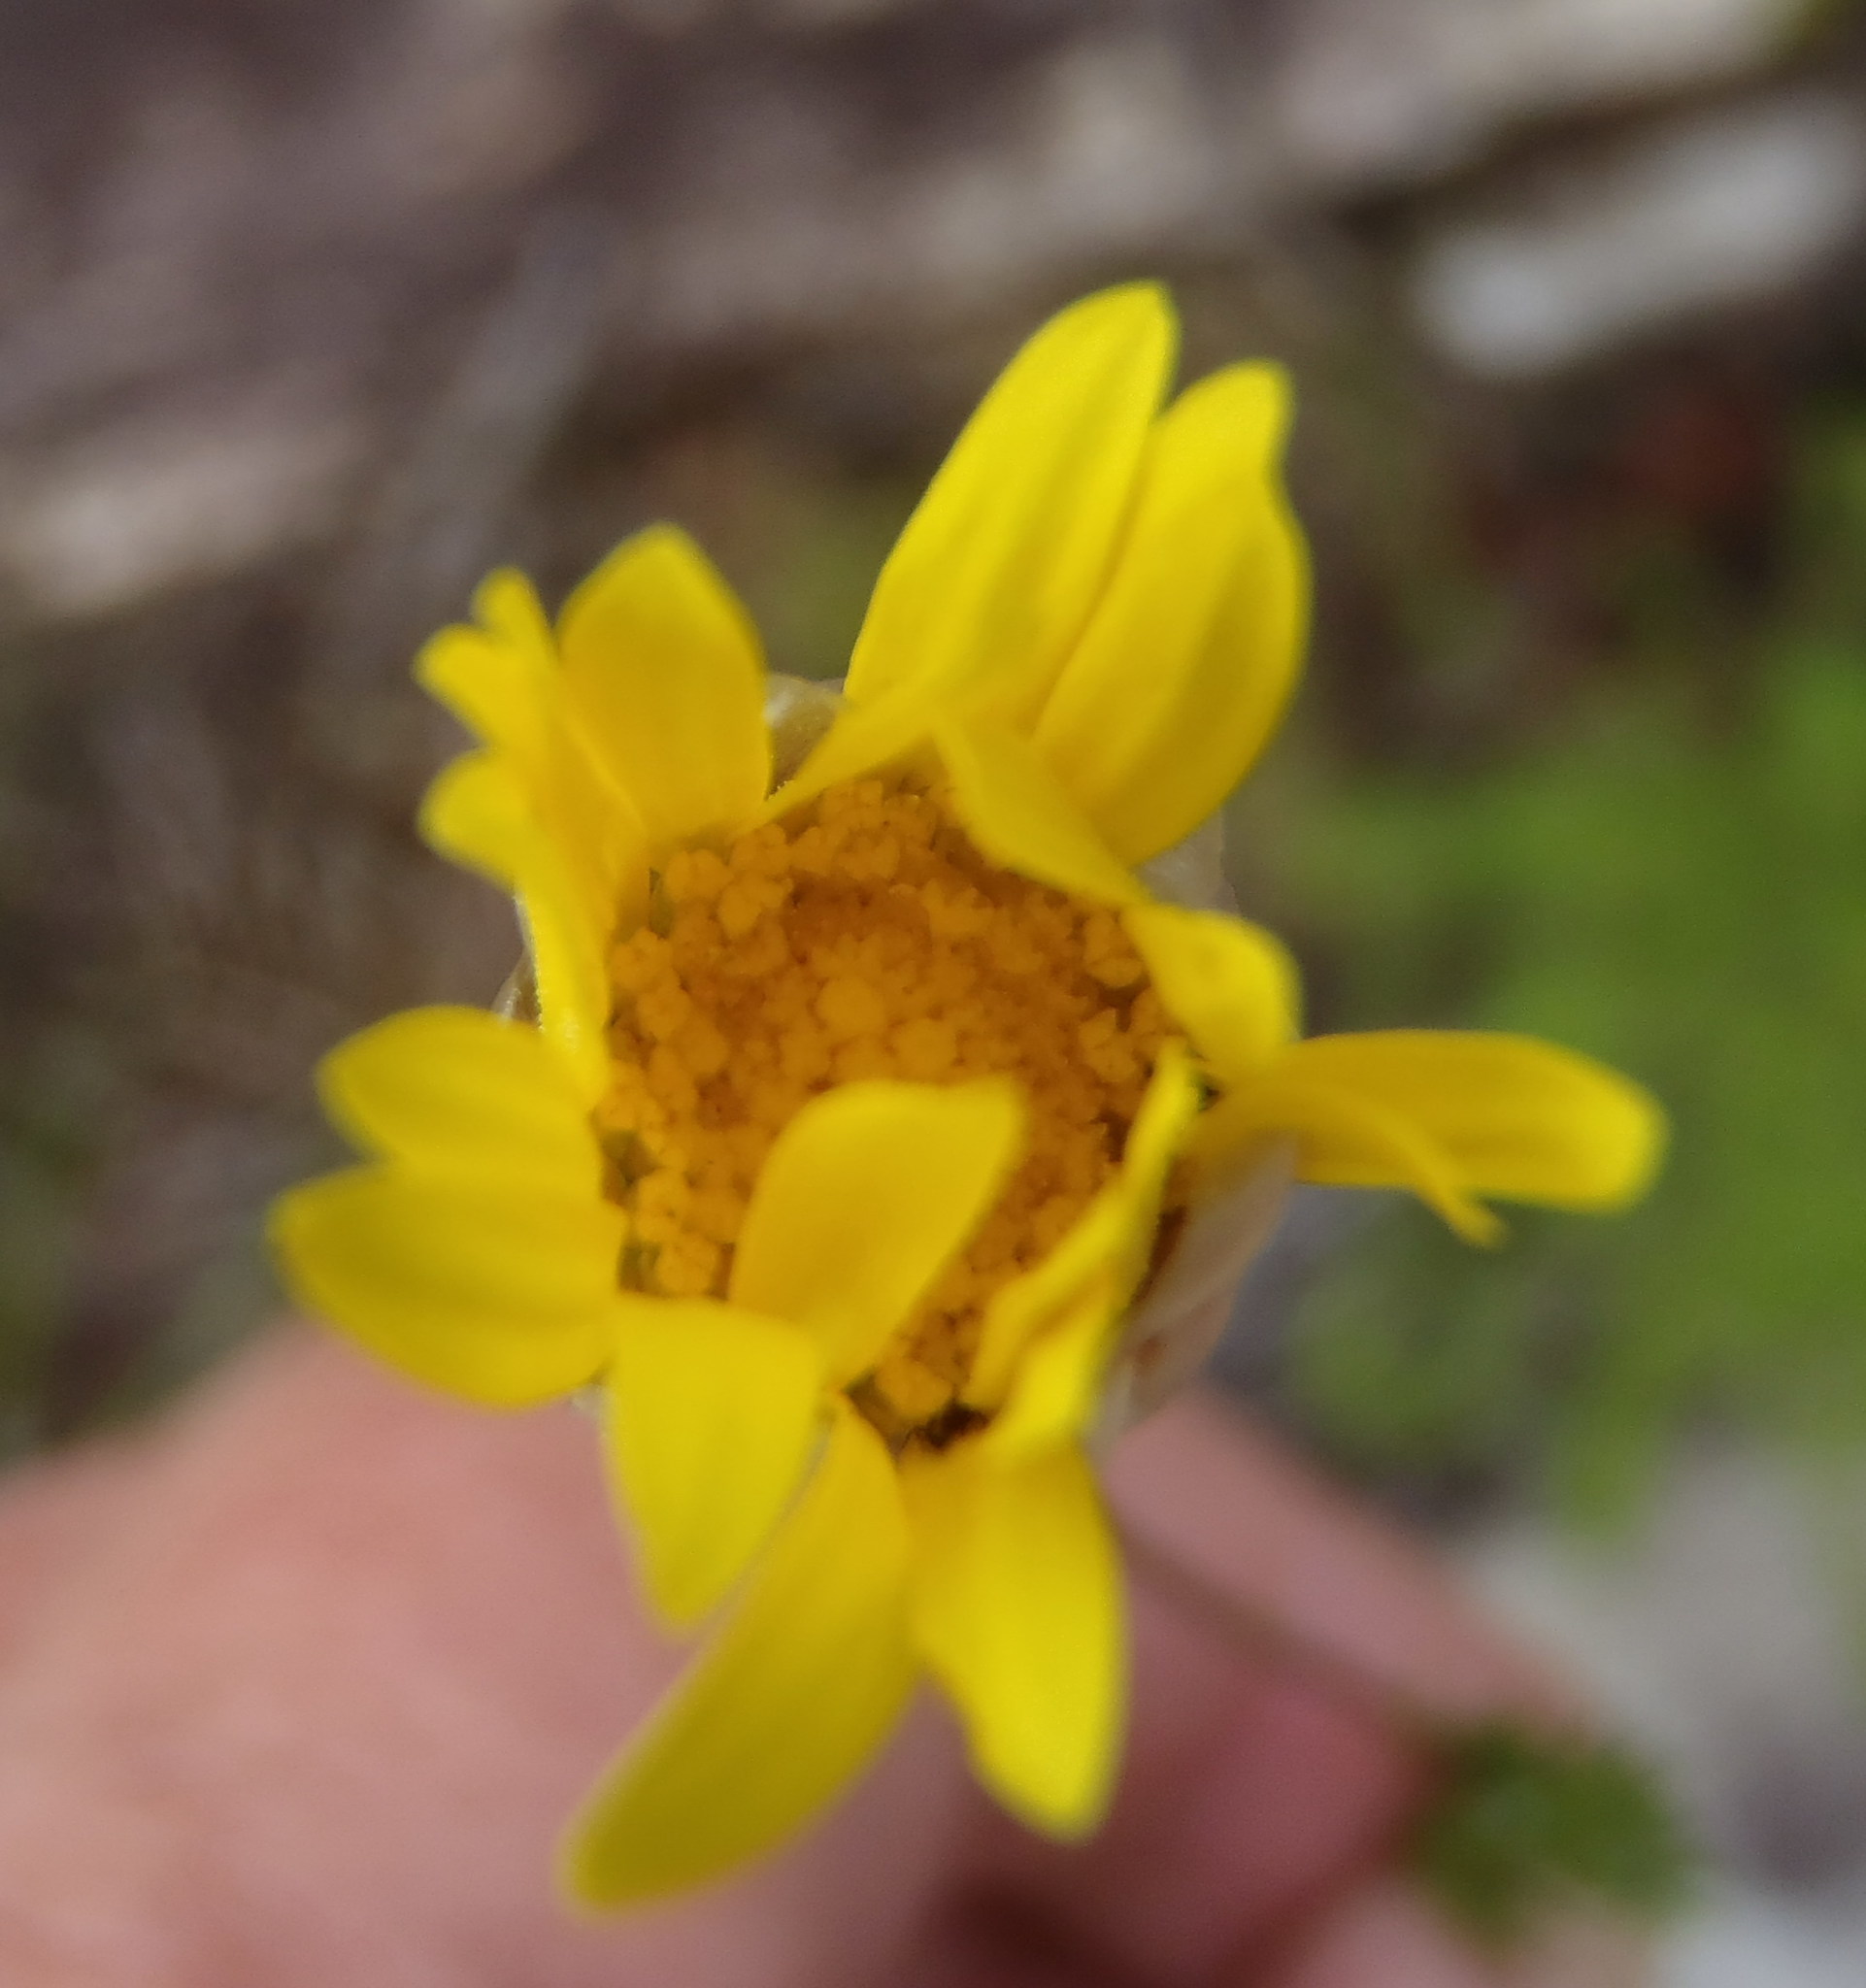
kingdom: Plantae
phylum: Tracheophyta
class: Magnoliopsida
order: Asterales
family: Asteraceae
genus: Ursinia
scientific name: Ursinia trifida
